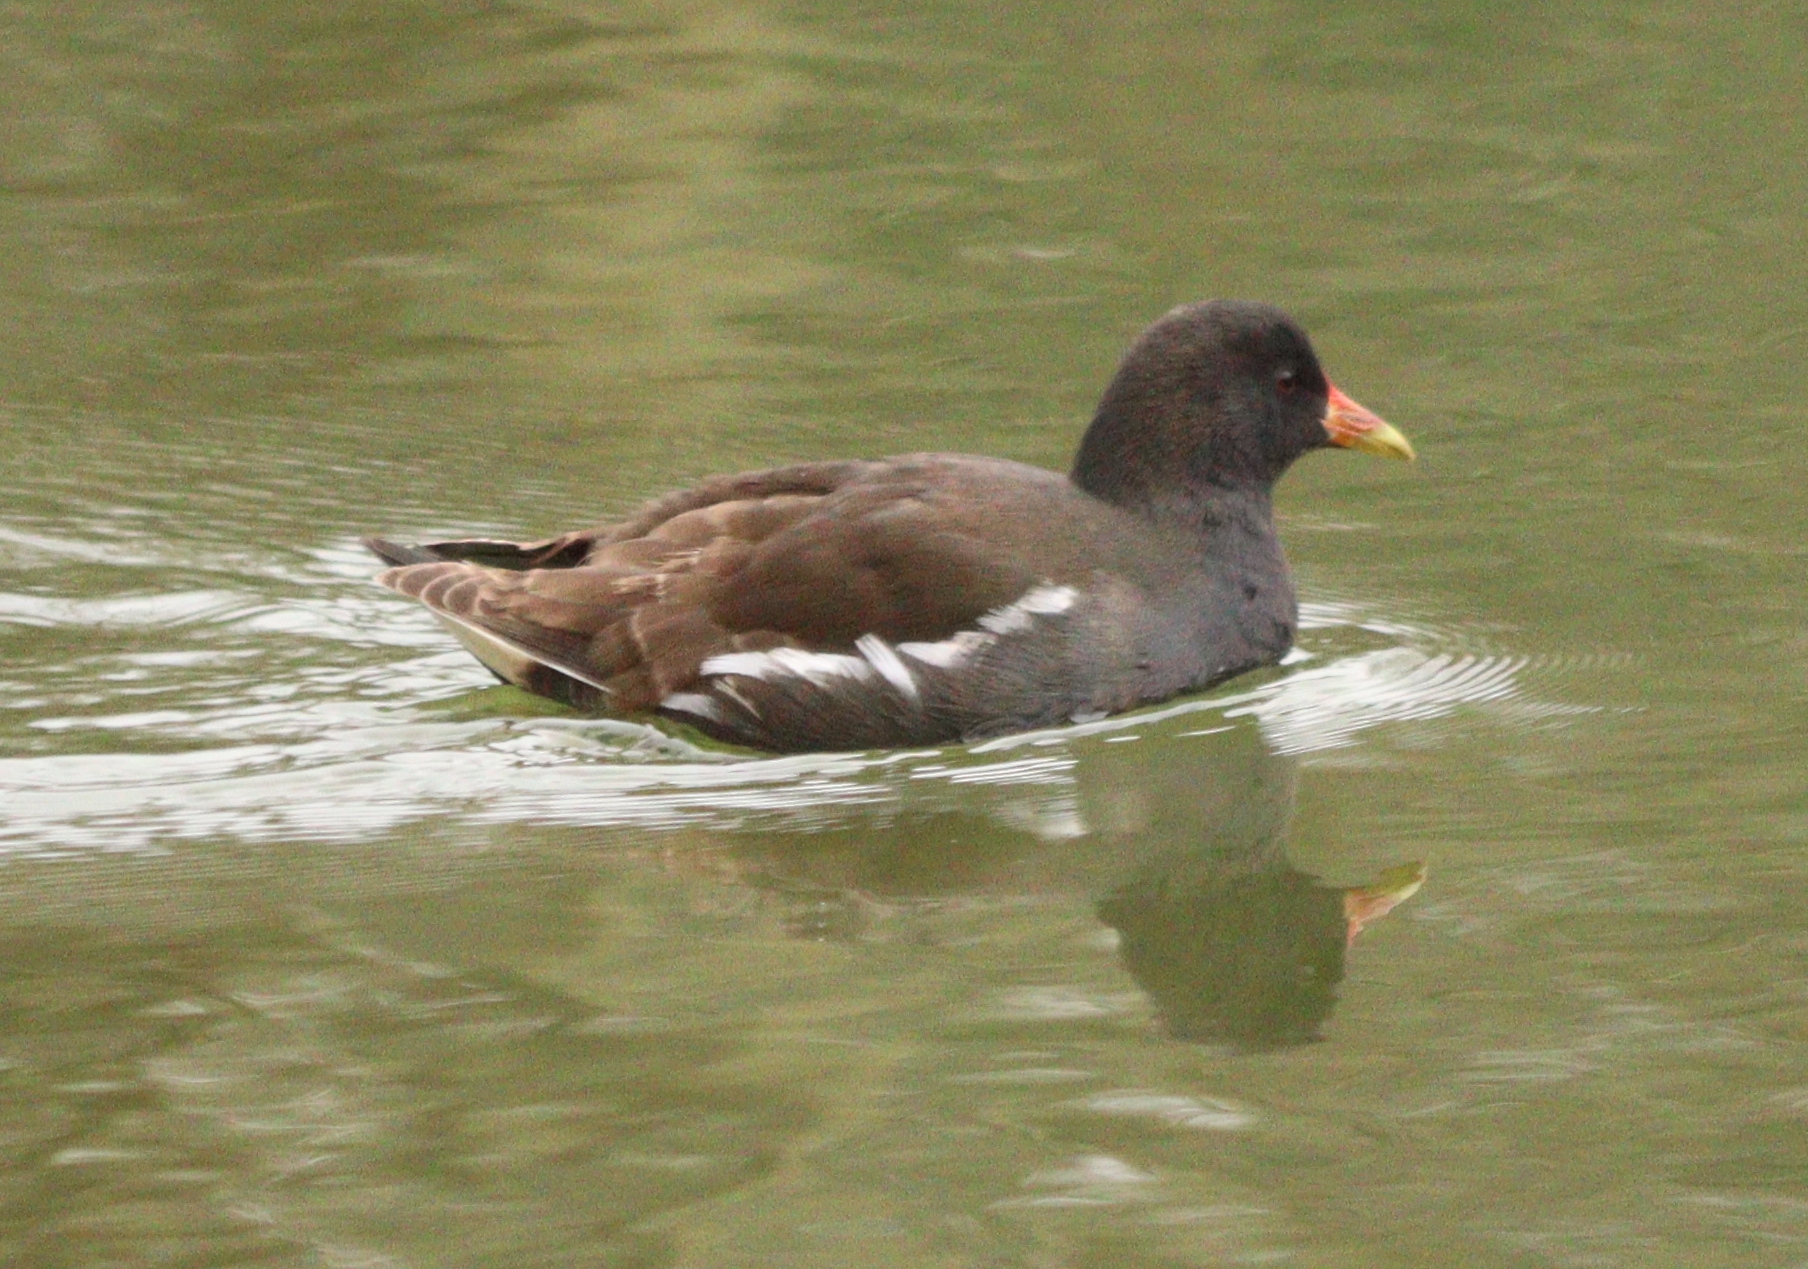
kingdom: Animalia
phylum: Chordata
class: Aves
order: Gruiformes
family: Rallidae
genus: Gallinula
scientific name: Gallinula chloropus
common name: Common moorhen
